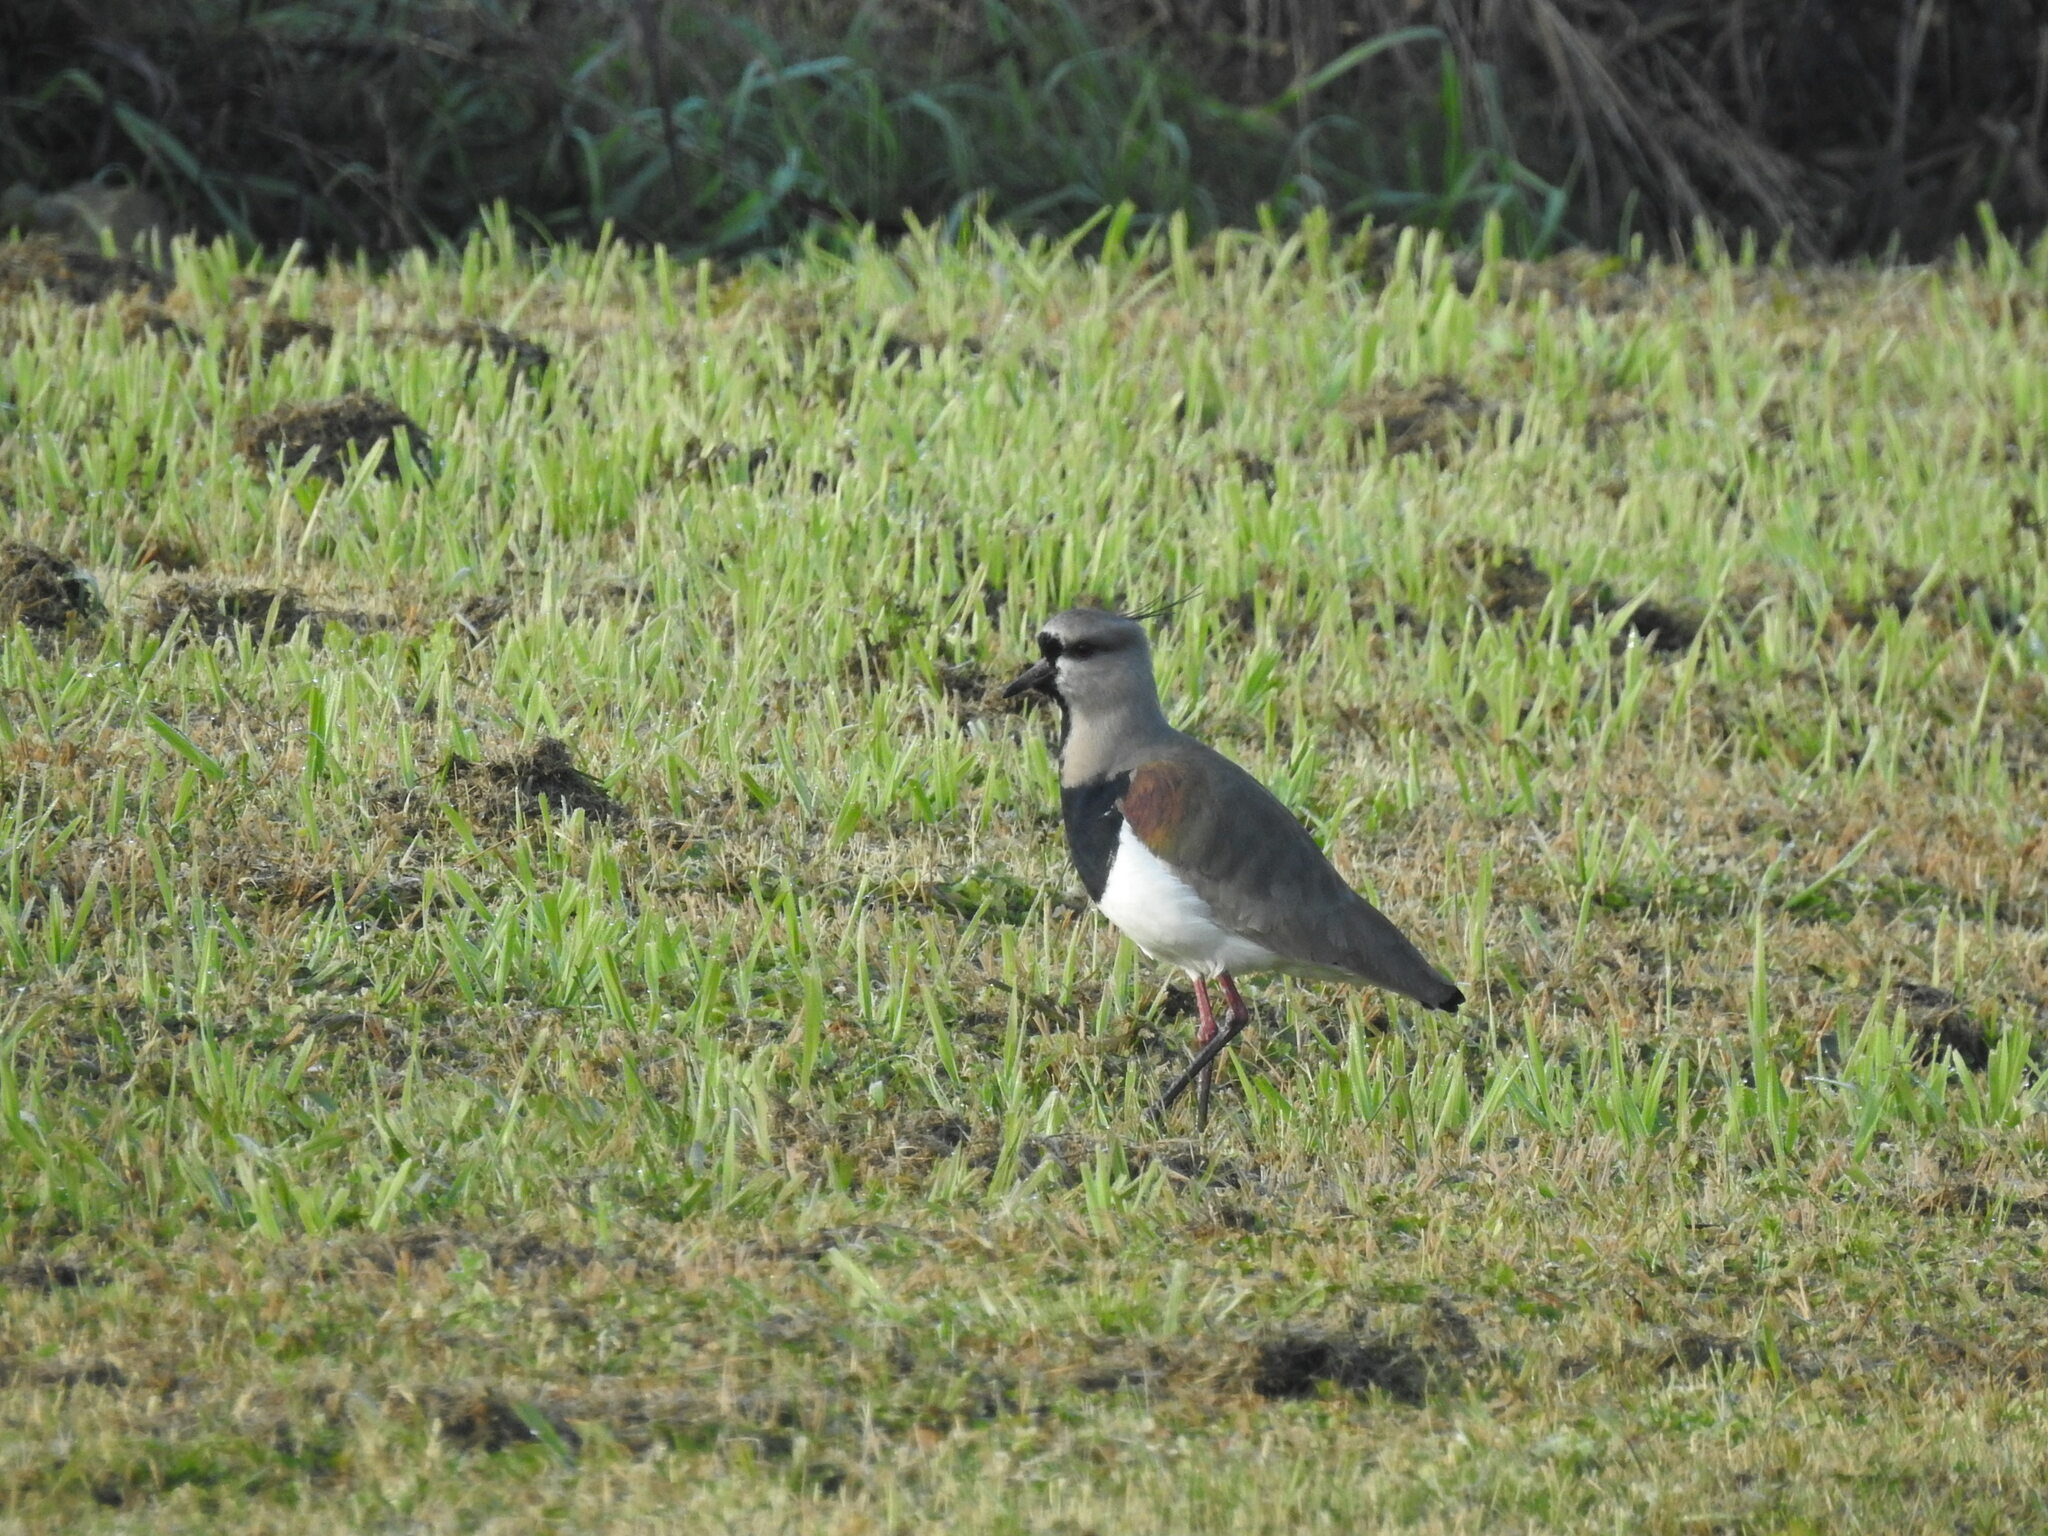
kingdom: Animalia
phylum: Chordata
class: Aves
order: Charadriiformes
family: Charadriidae
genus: Vanellus
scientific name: Vanellus chilensis
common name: Southern lapwing
